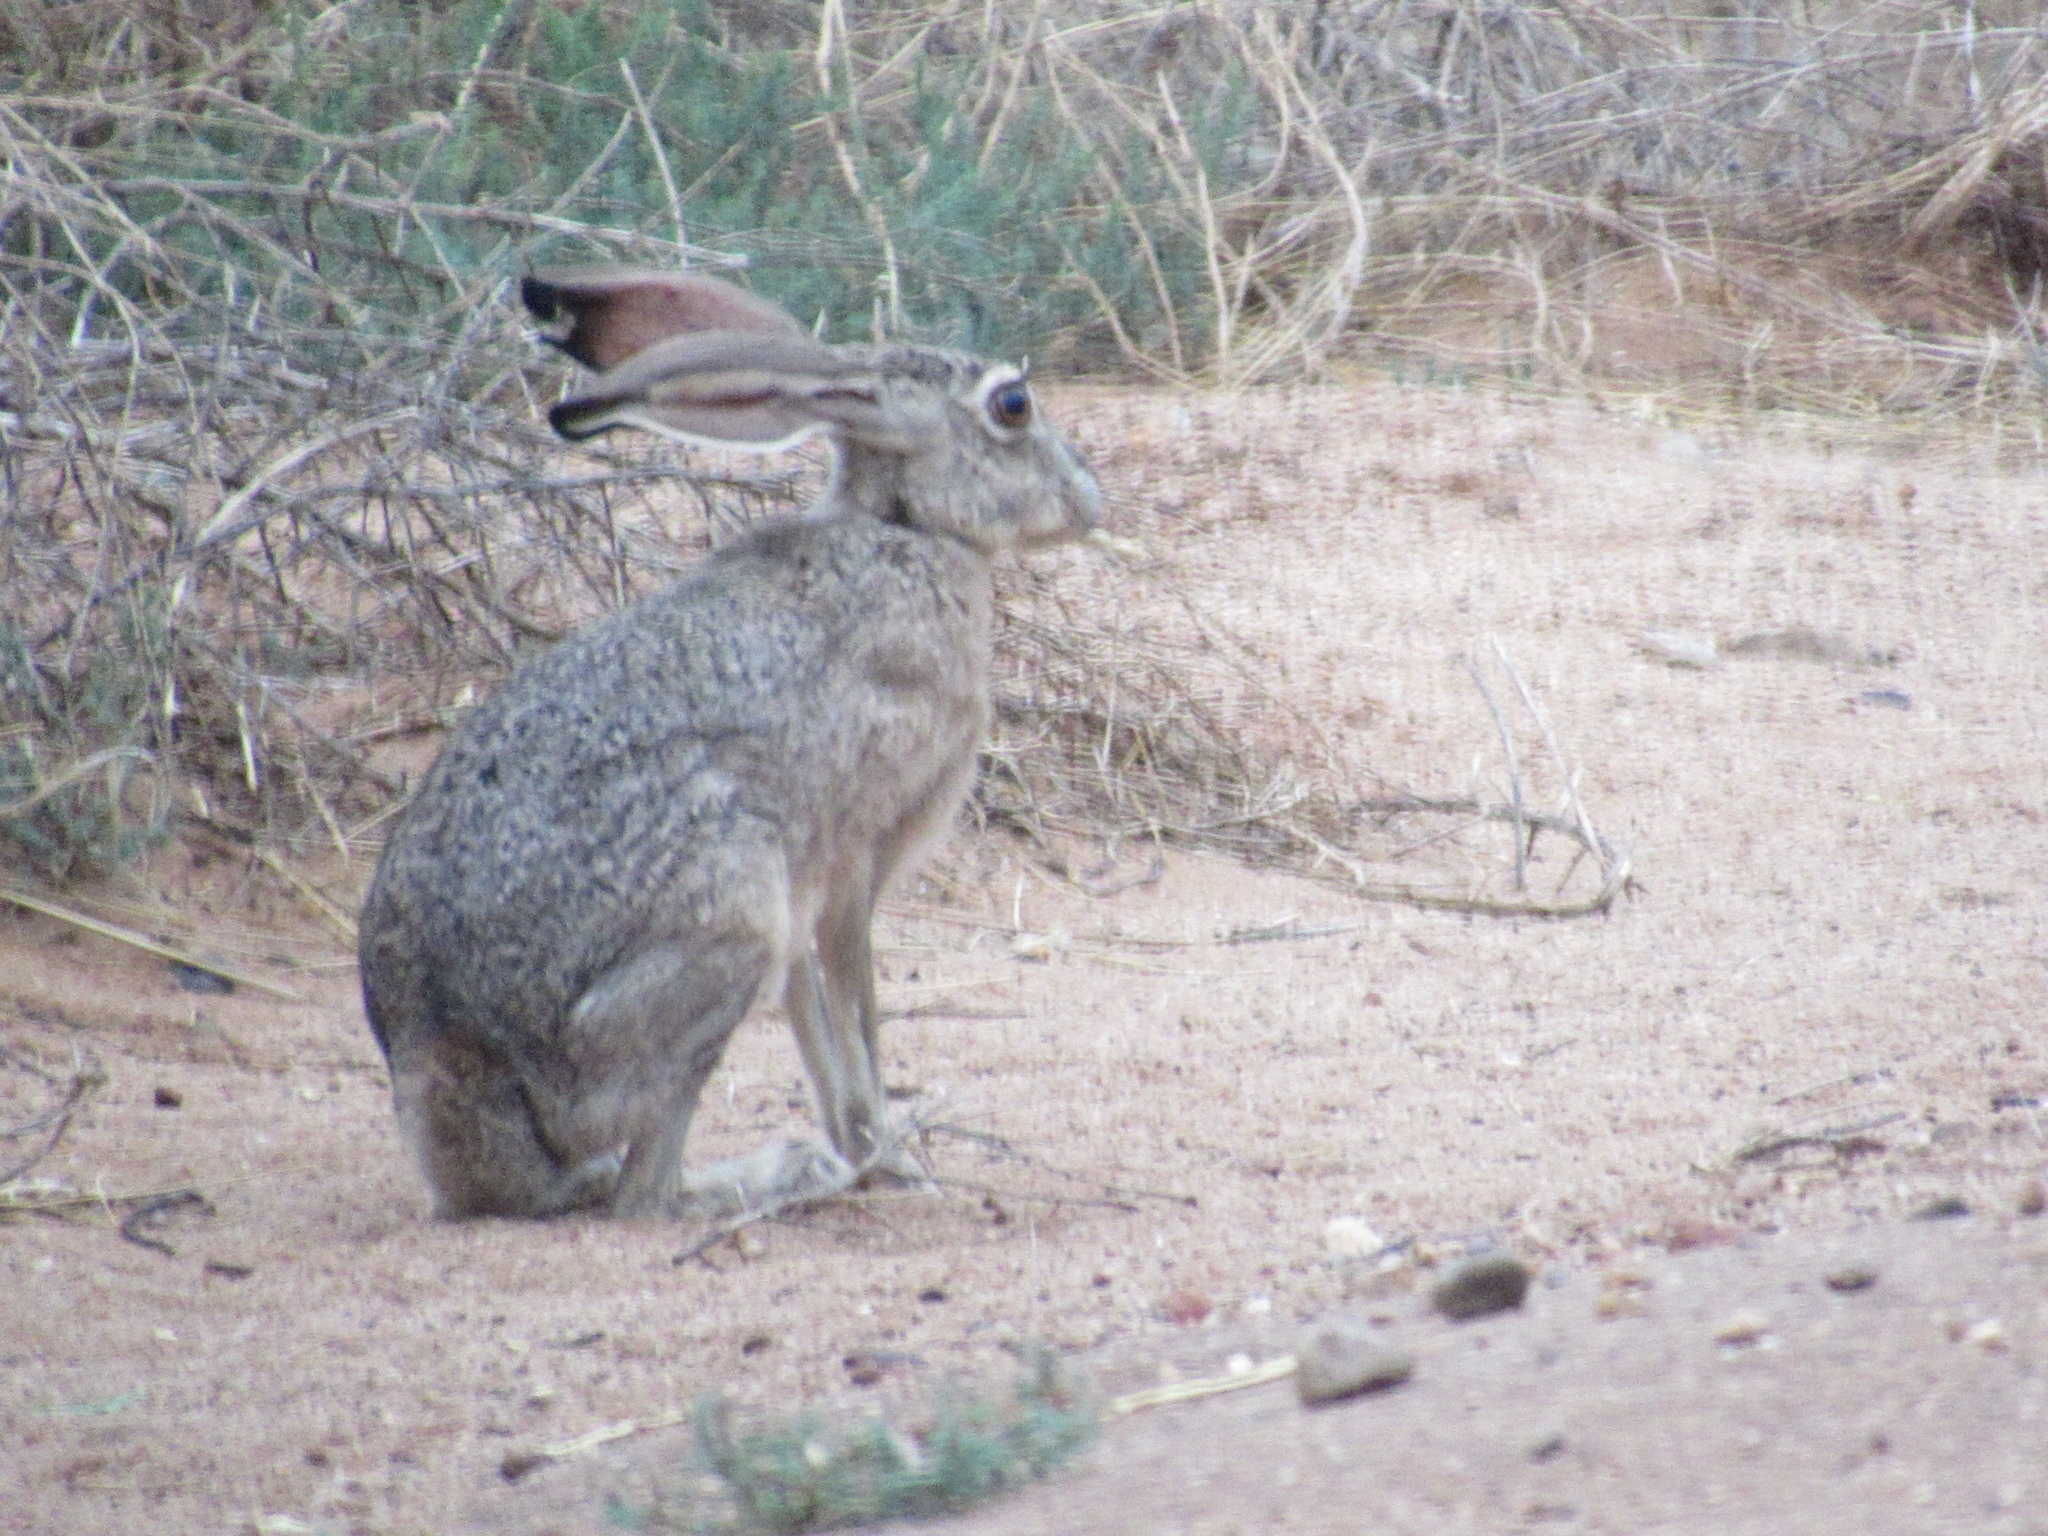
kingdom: Animalia
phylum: Chordata
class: Mammalia
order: Lagomorpha
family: Leporidae
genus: Lepus
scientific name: Lepus californicus
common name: Black-tailed jackrabbit
